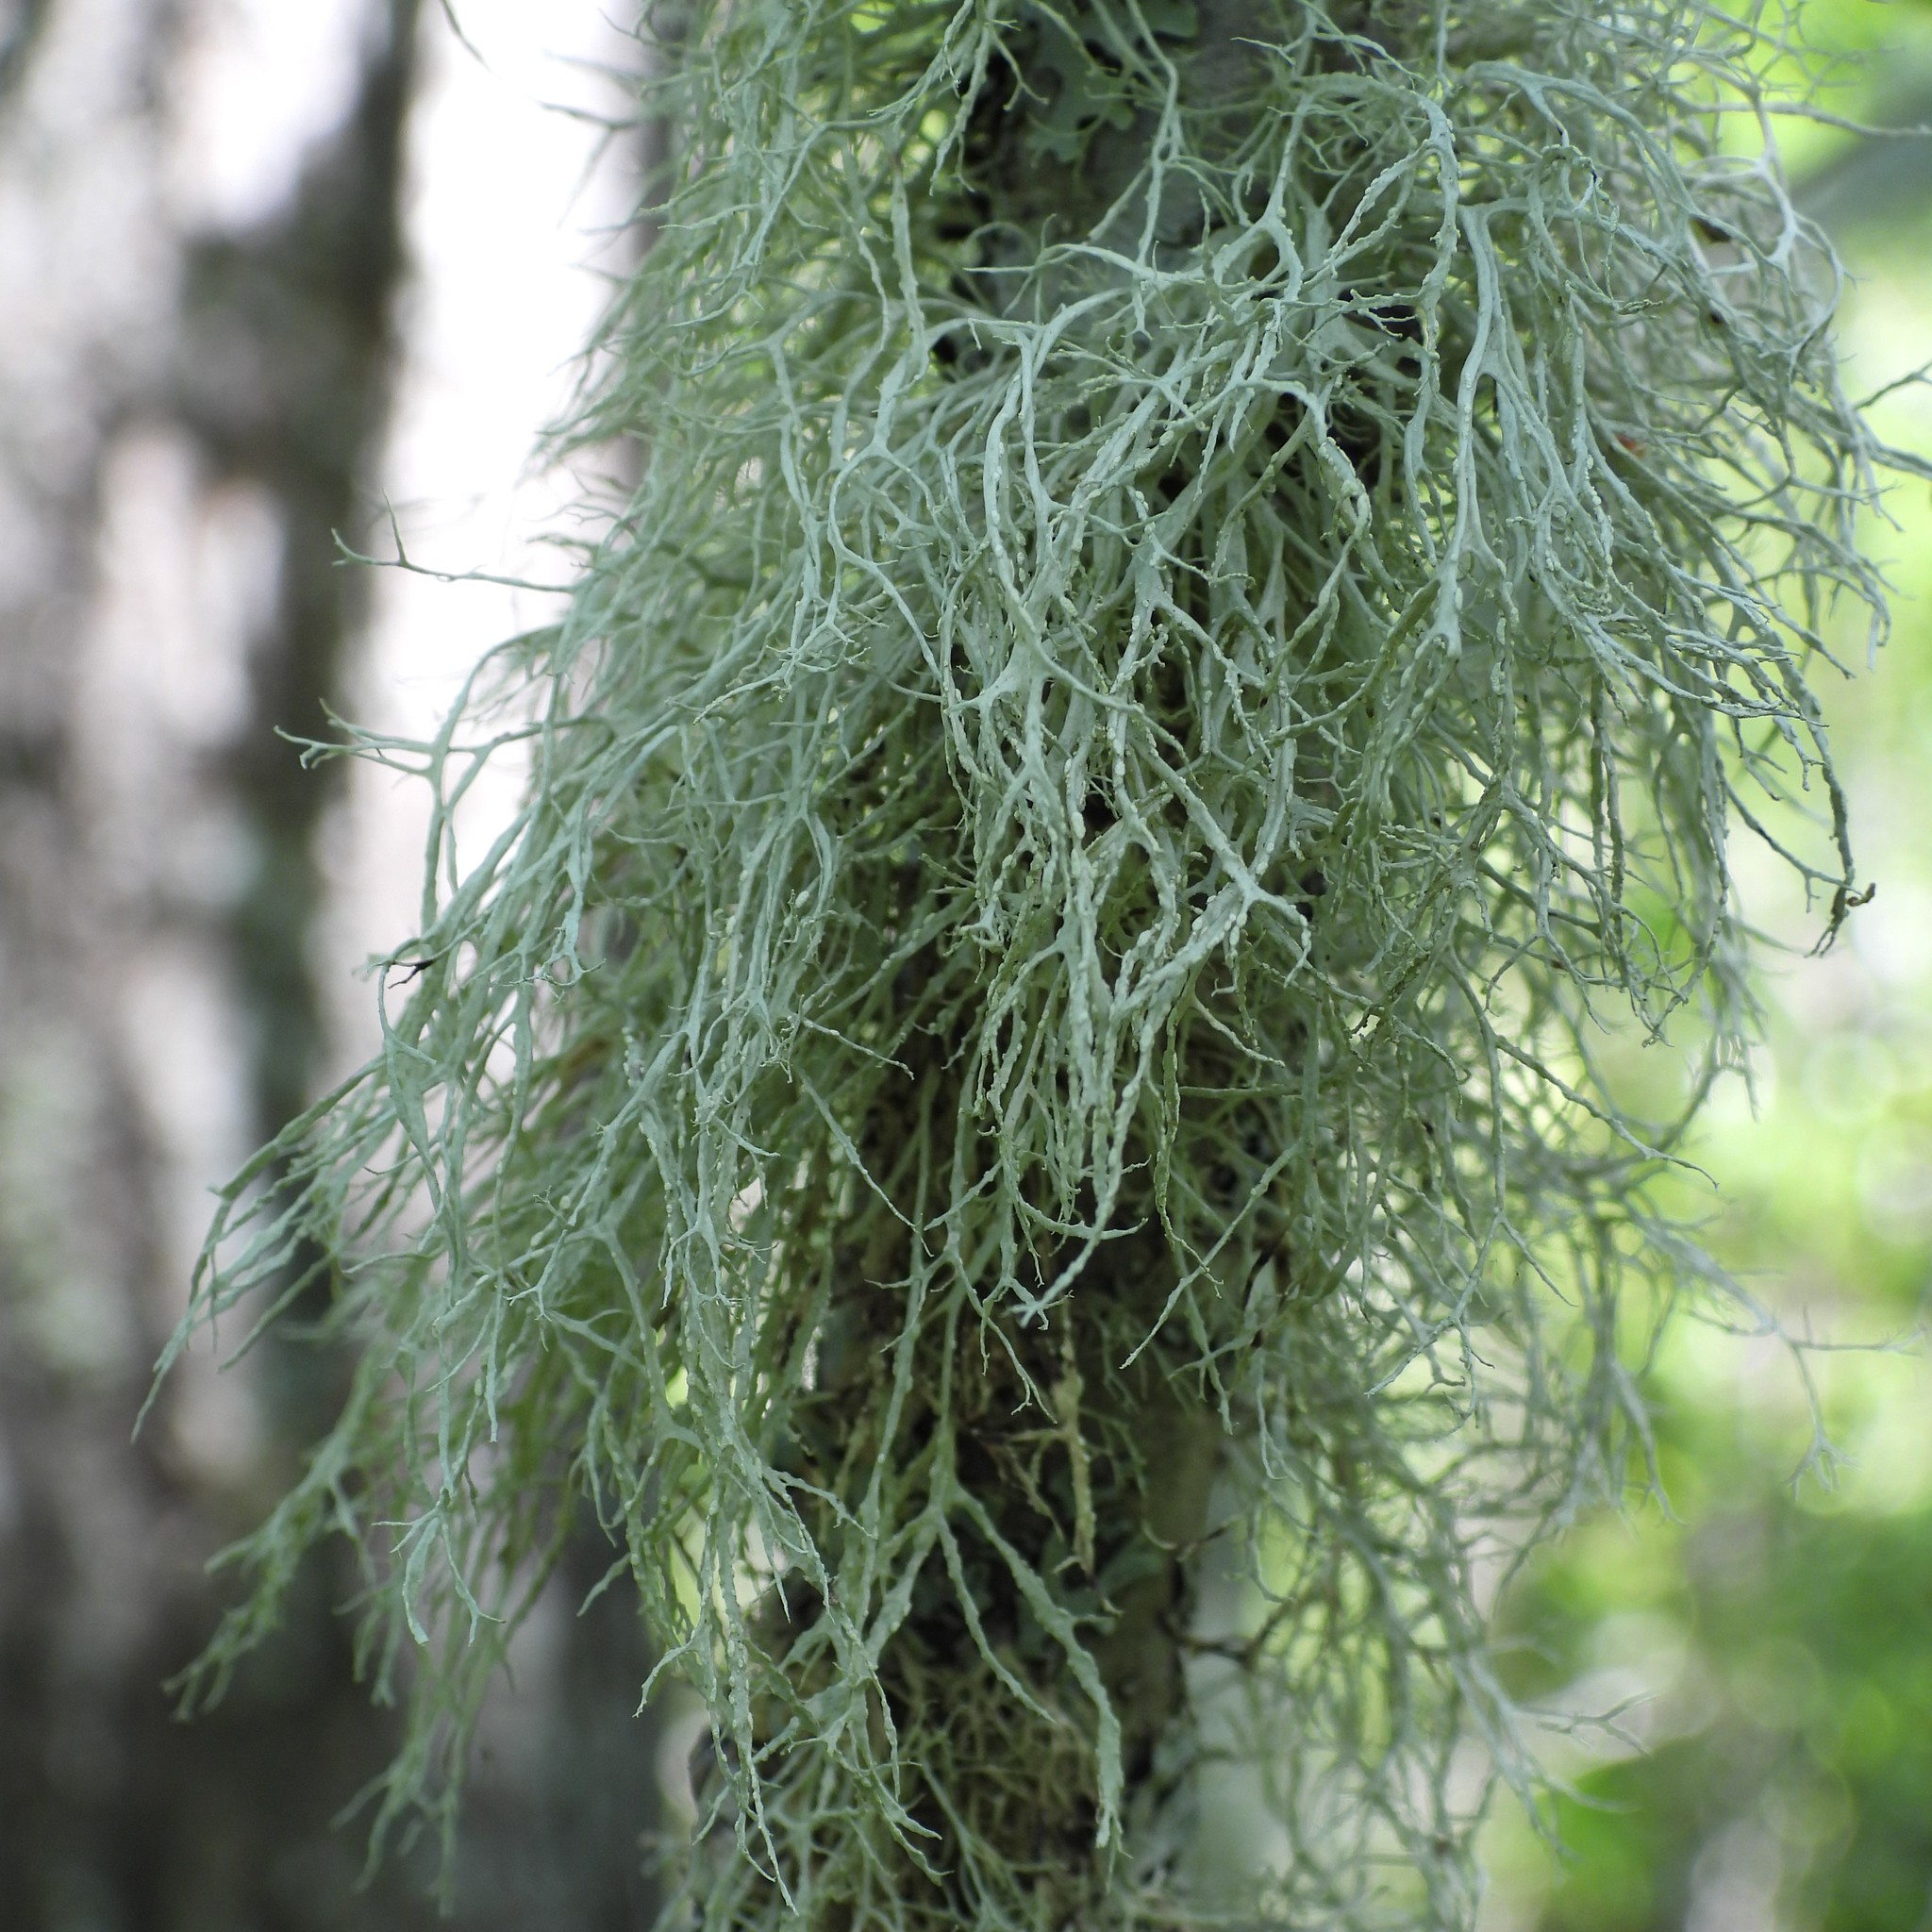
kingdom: Fungi
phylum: Ascomycota
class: Lecanoromycetes
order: Lecanorales
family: Ramalinaceae
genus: Ramalina
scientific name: Ramalina farinacea
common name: Farinose cartilage lichen
